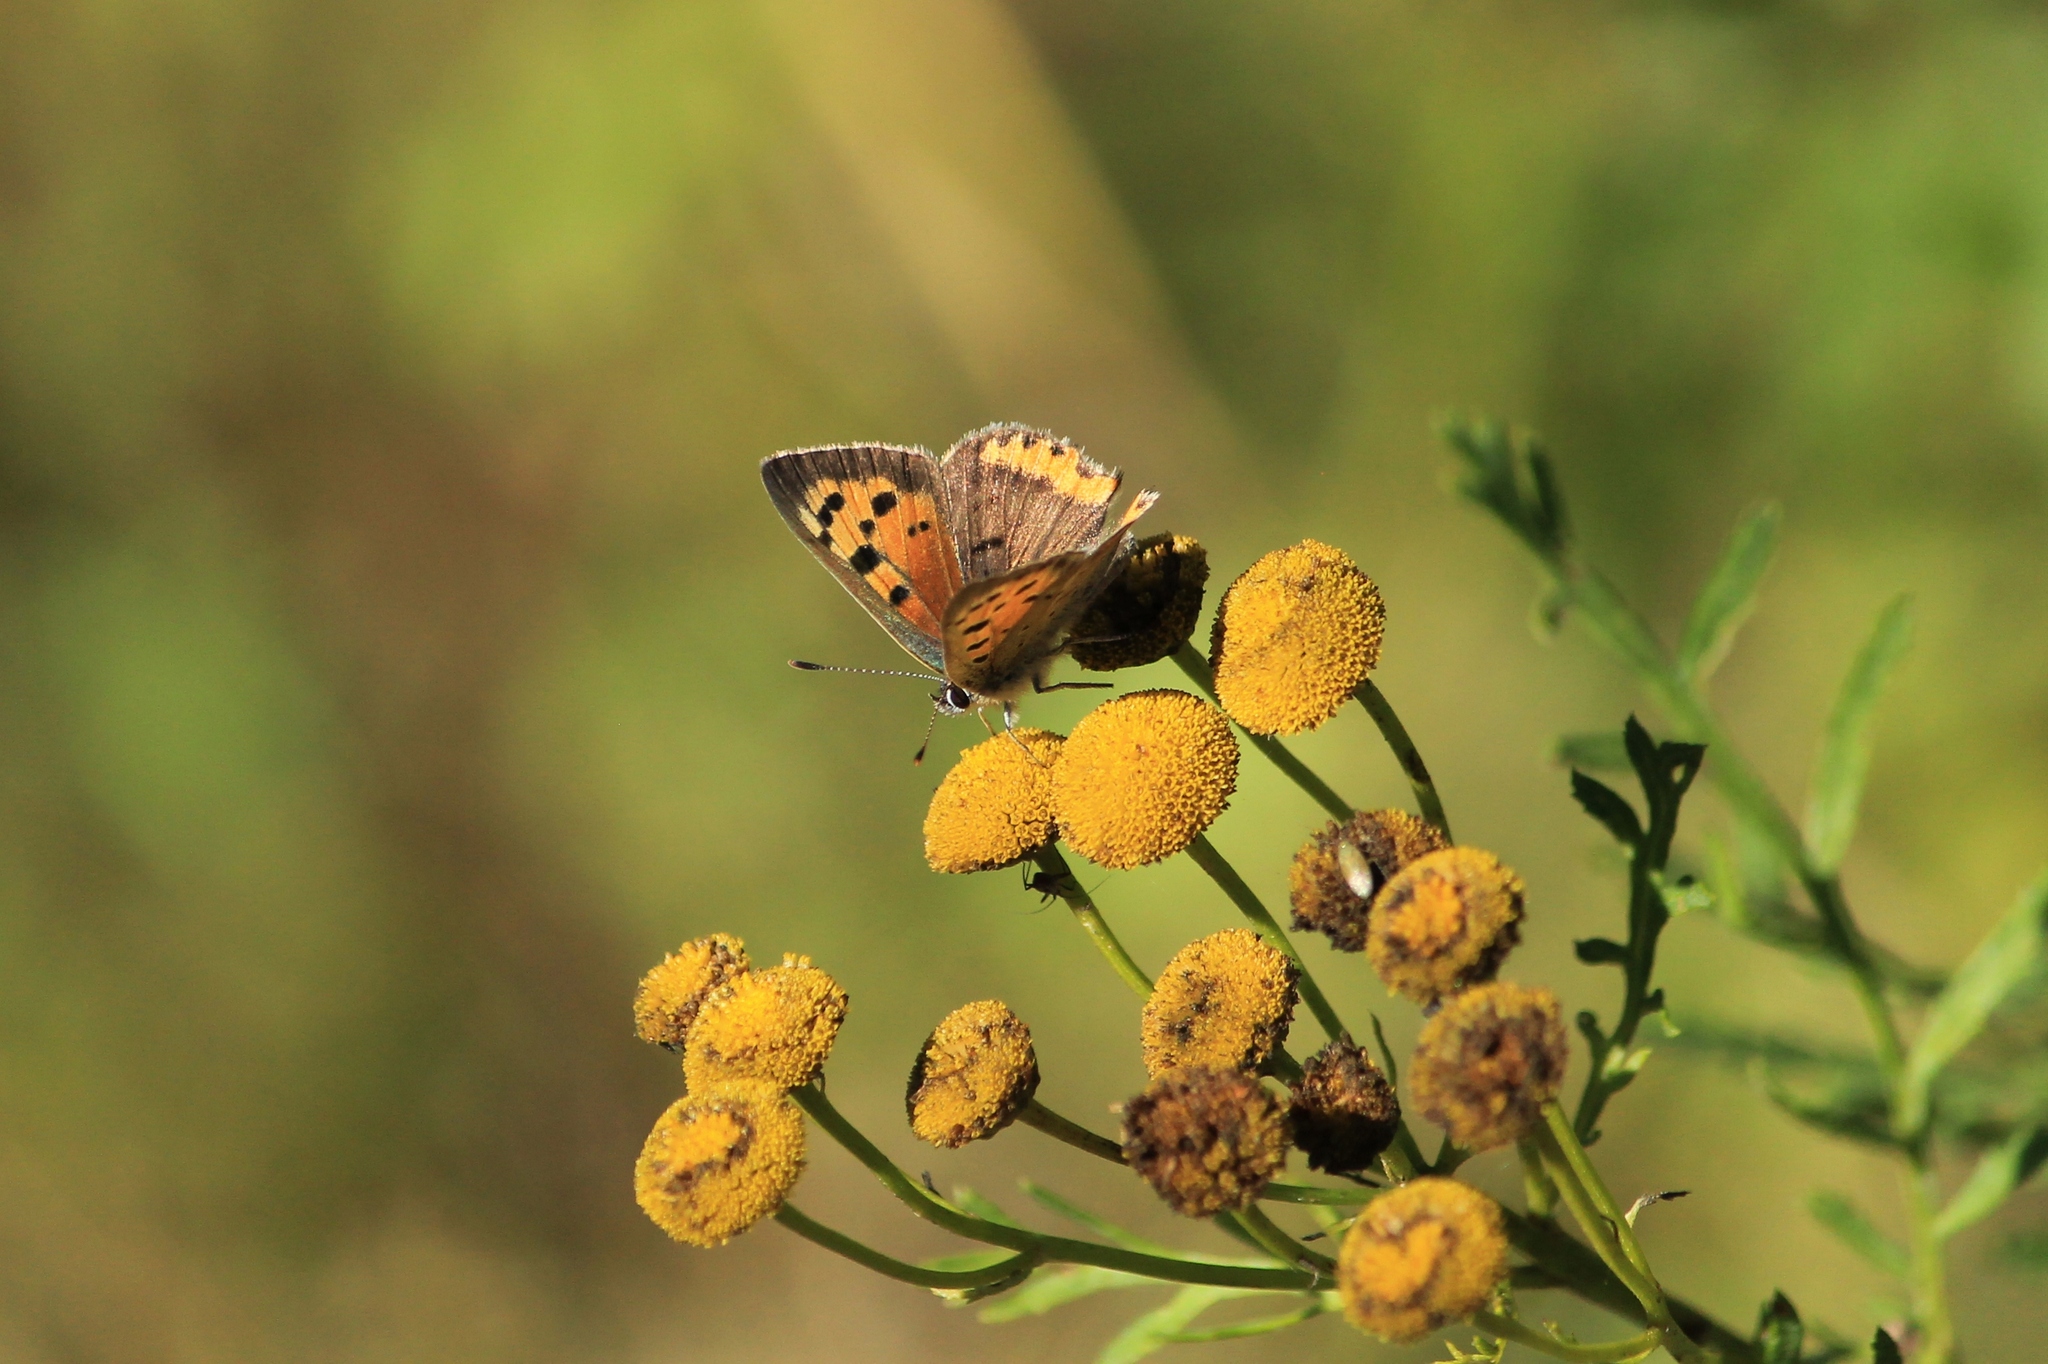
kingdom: Animalia
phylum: Arthropoda
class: Insecta
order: Lepidoptera
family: Lycaenidae
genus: Lycaena
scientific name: Lycaena phlaeas
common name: Small copper
